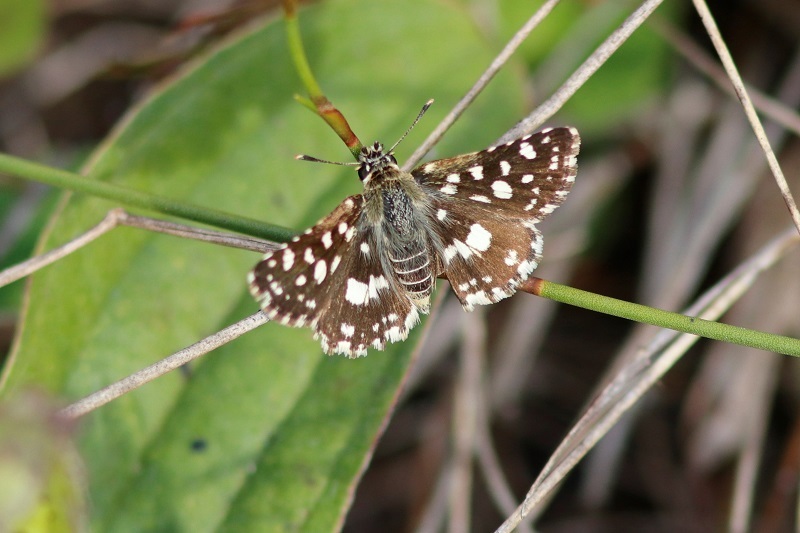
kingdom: Animalia
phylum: Arthropoda
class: Insecta
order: Lepidoptera
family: Hesperiidae
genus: Spialia
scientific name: Spialia spio
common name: Mountain sandman
